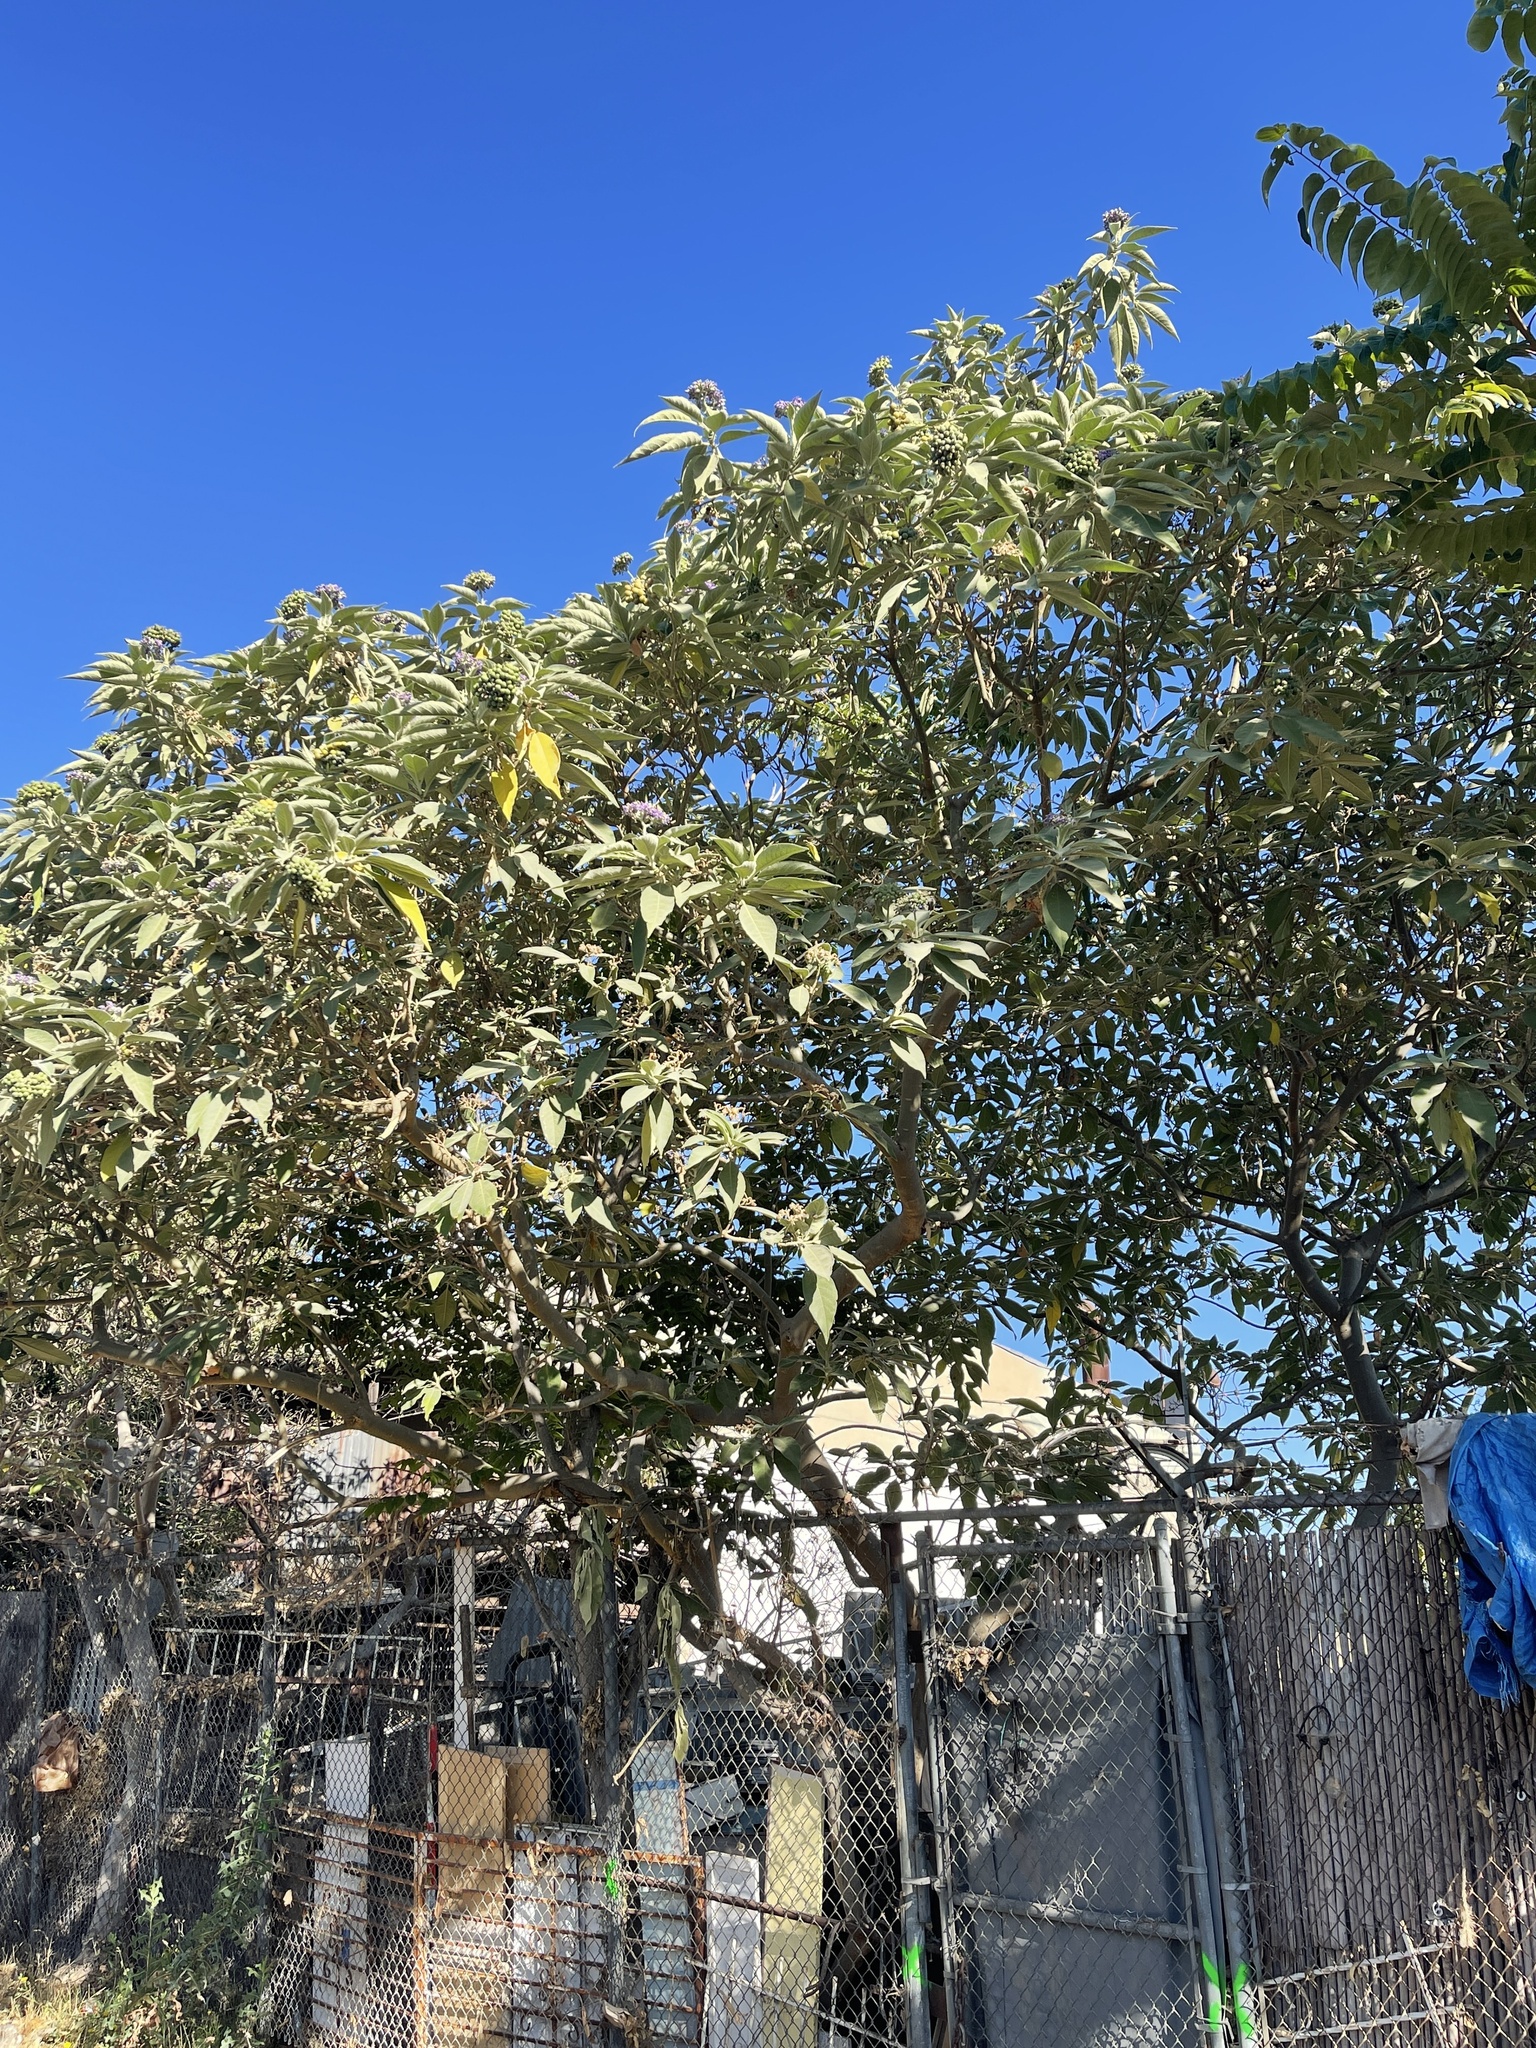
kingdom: Plantae
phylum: Tracheophyta
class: Magnoliopsida
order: Solanales
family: Solanaceae
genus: Solanum
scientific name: Solanum mauritianum
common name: Earleaf nightshade
